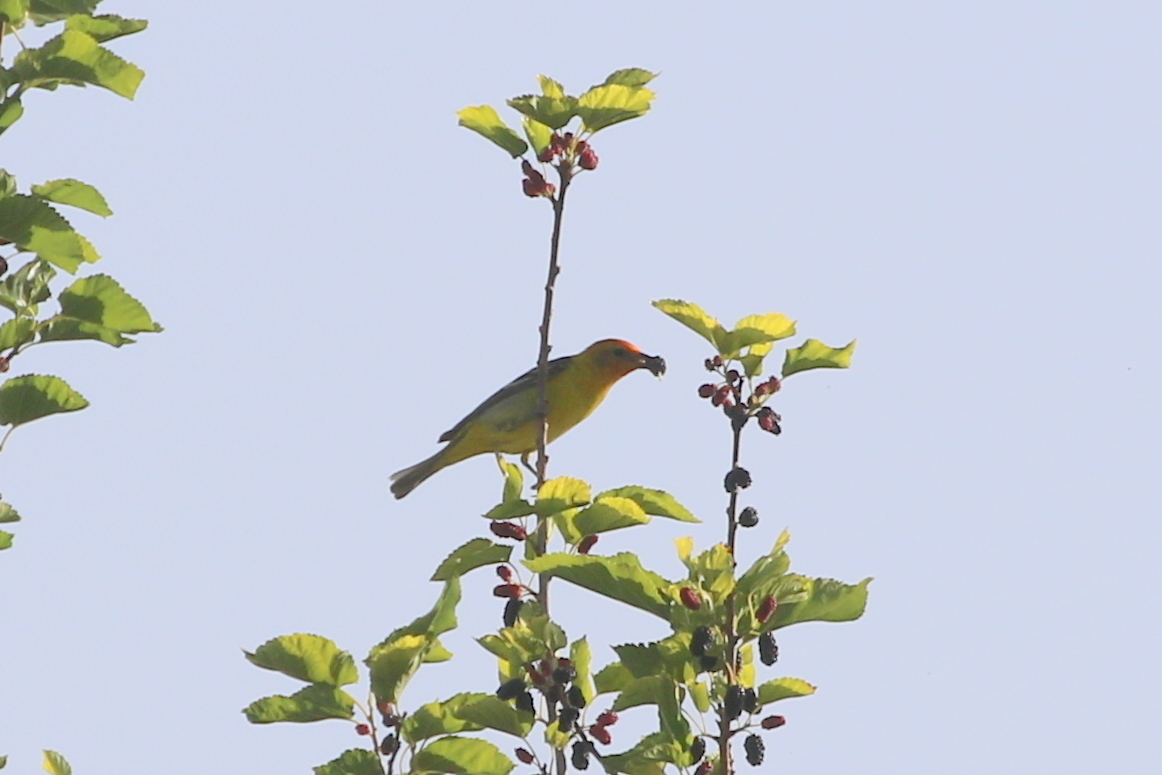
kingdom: Animalia
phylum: Chordata
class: Aves
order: Passeriformes
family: Cardinalidae
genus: Piranga
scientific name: Piranga ludoviciana
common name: Western tanager
